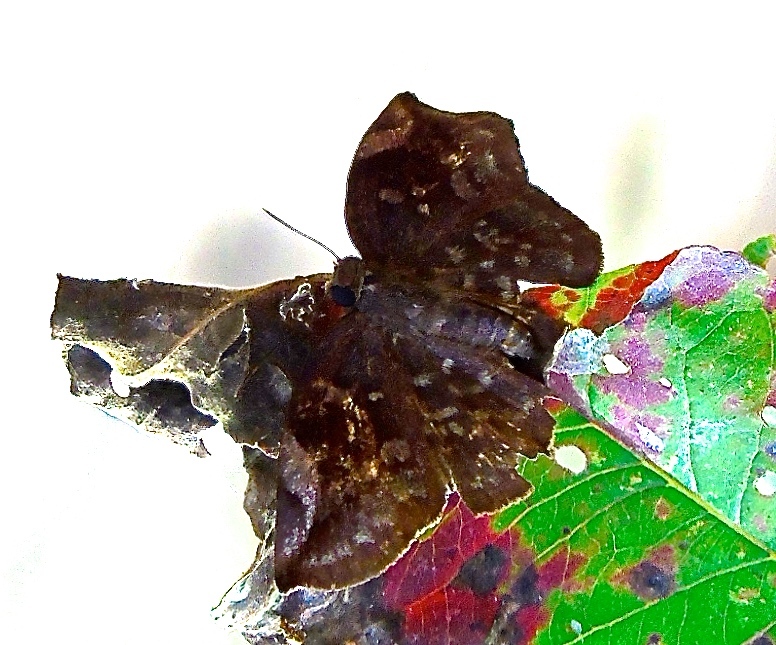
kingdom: Animalia
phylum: Arthropoda
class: Insecta
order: Lepidoptera
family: Hesperiidae
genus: Achlyodes
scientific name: Achlyodes thraso
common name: Sickle-winged skipper
